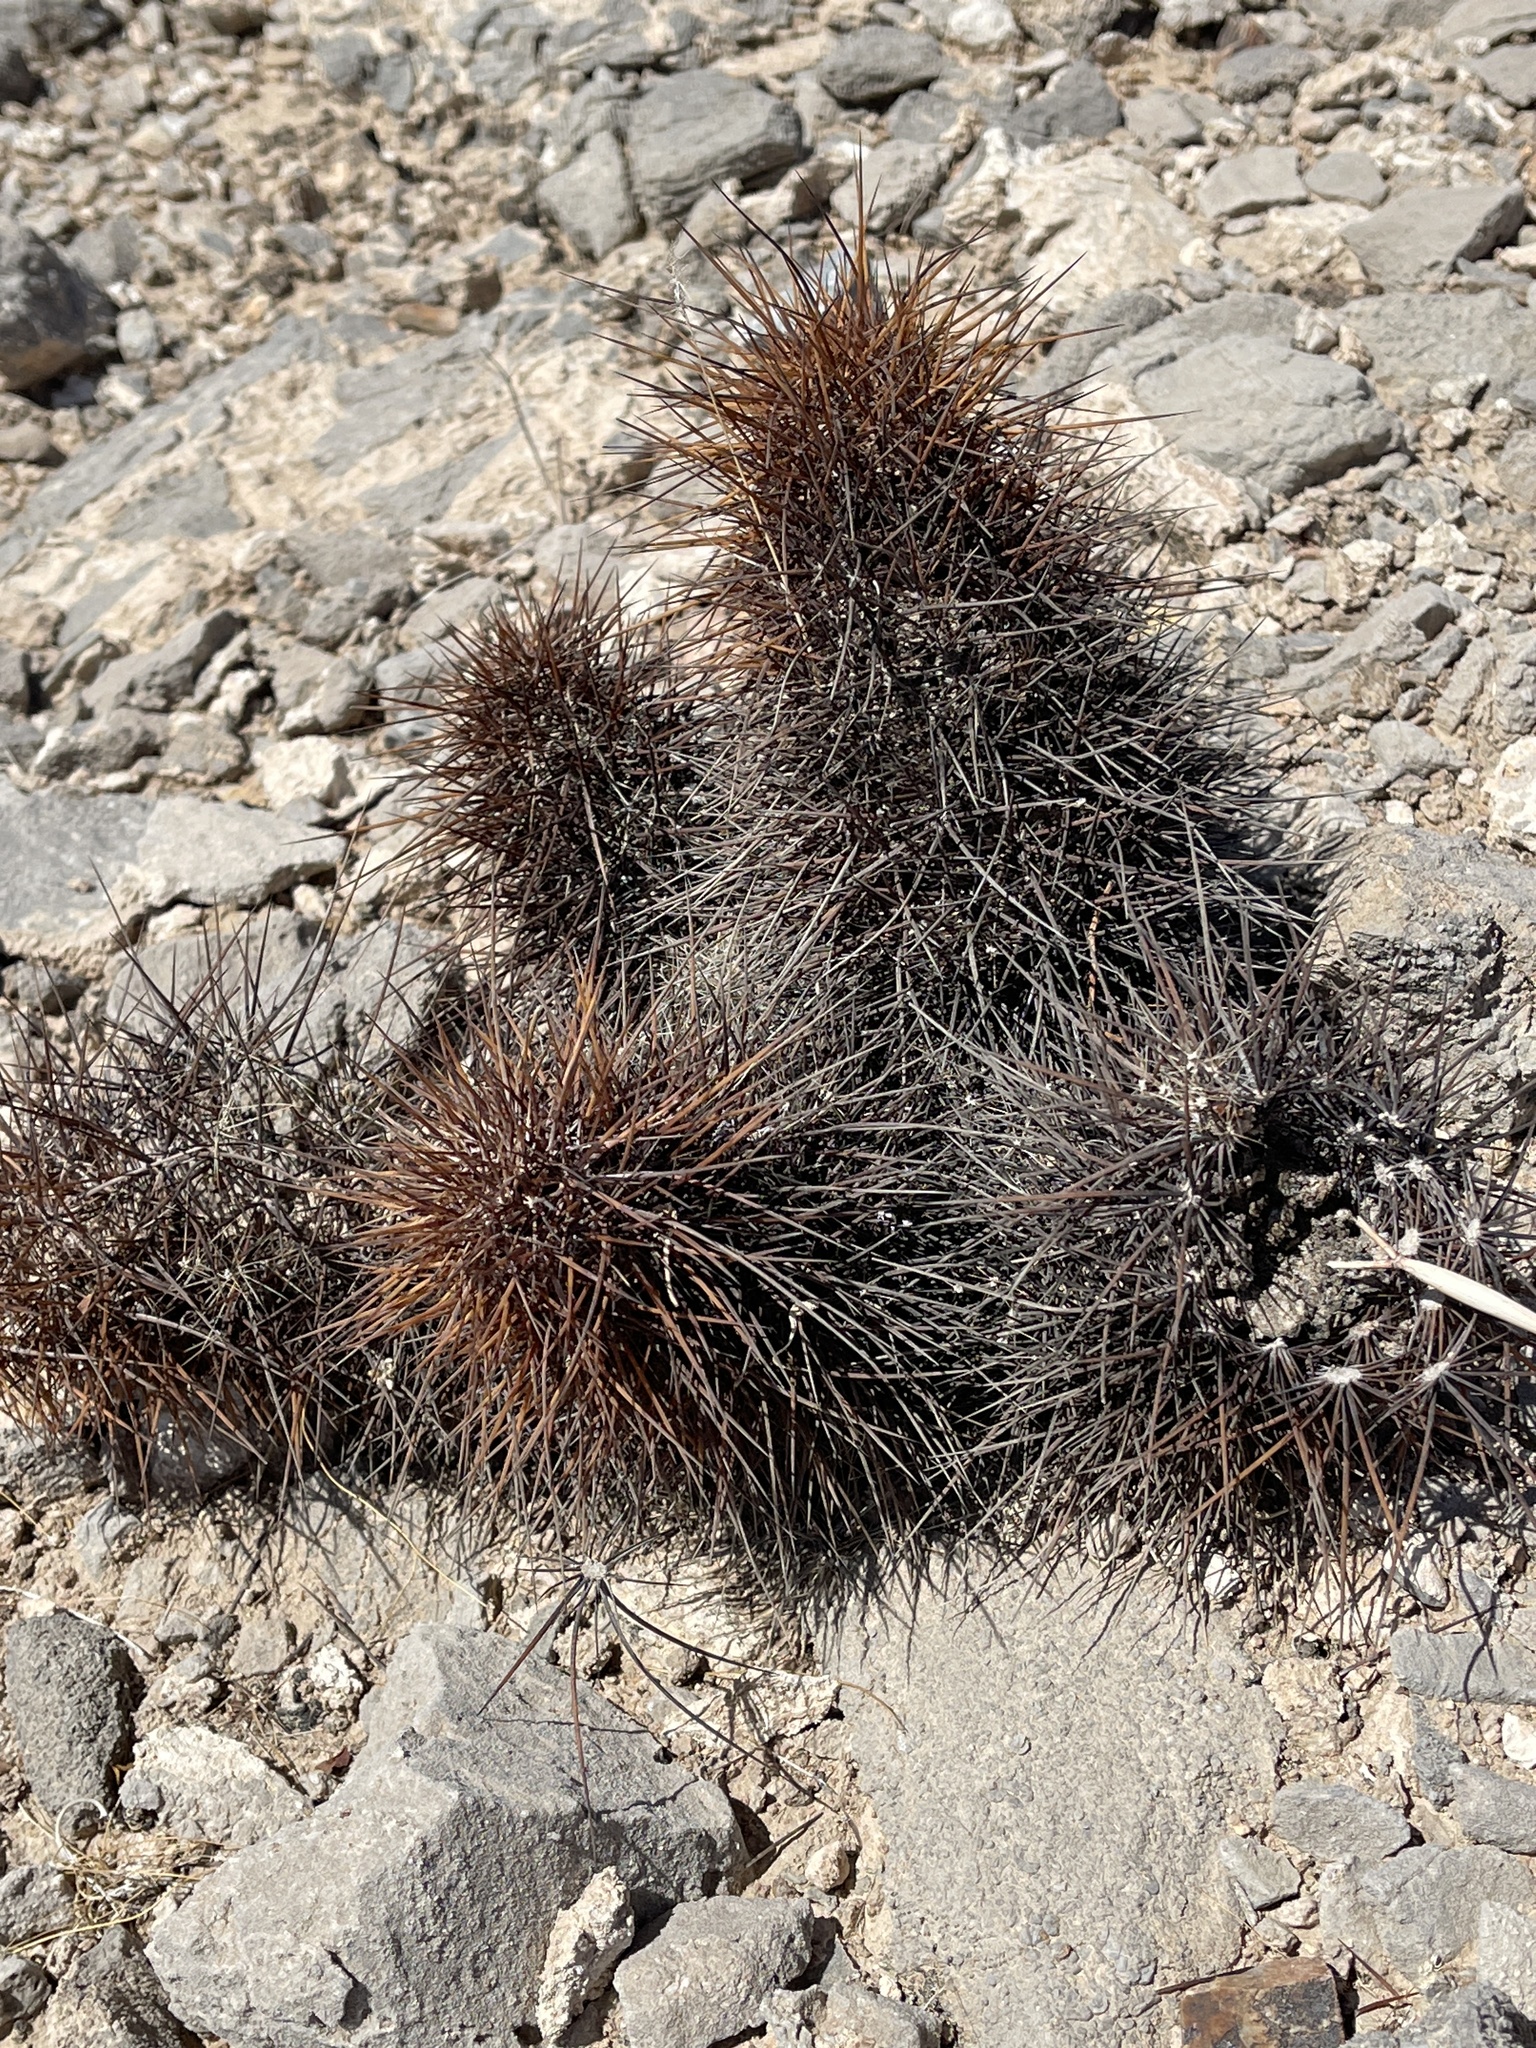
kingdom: Plantae
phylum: Tracheophyta
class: Magnoliopsida
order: Caryophyllales
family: Cactaceae
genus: Echinocereus
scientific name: Echinocereus engelmannii
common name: Engelmann's hedgehog cactus
